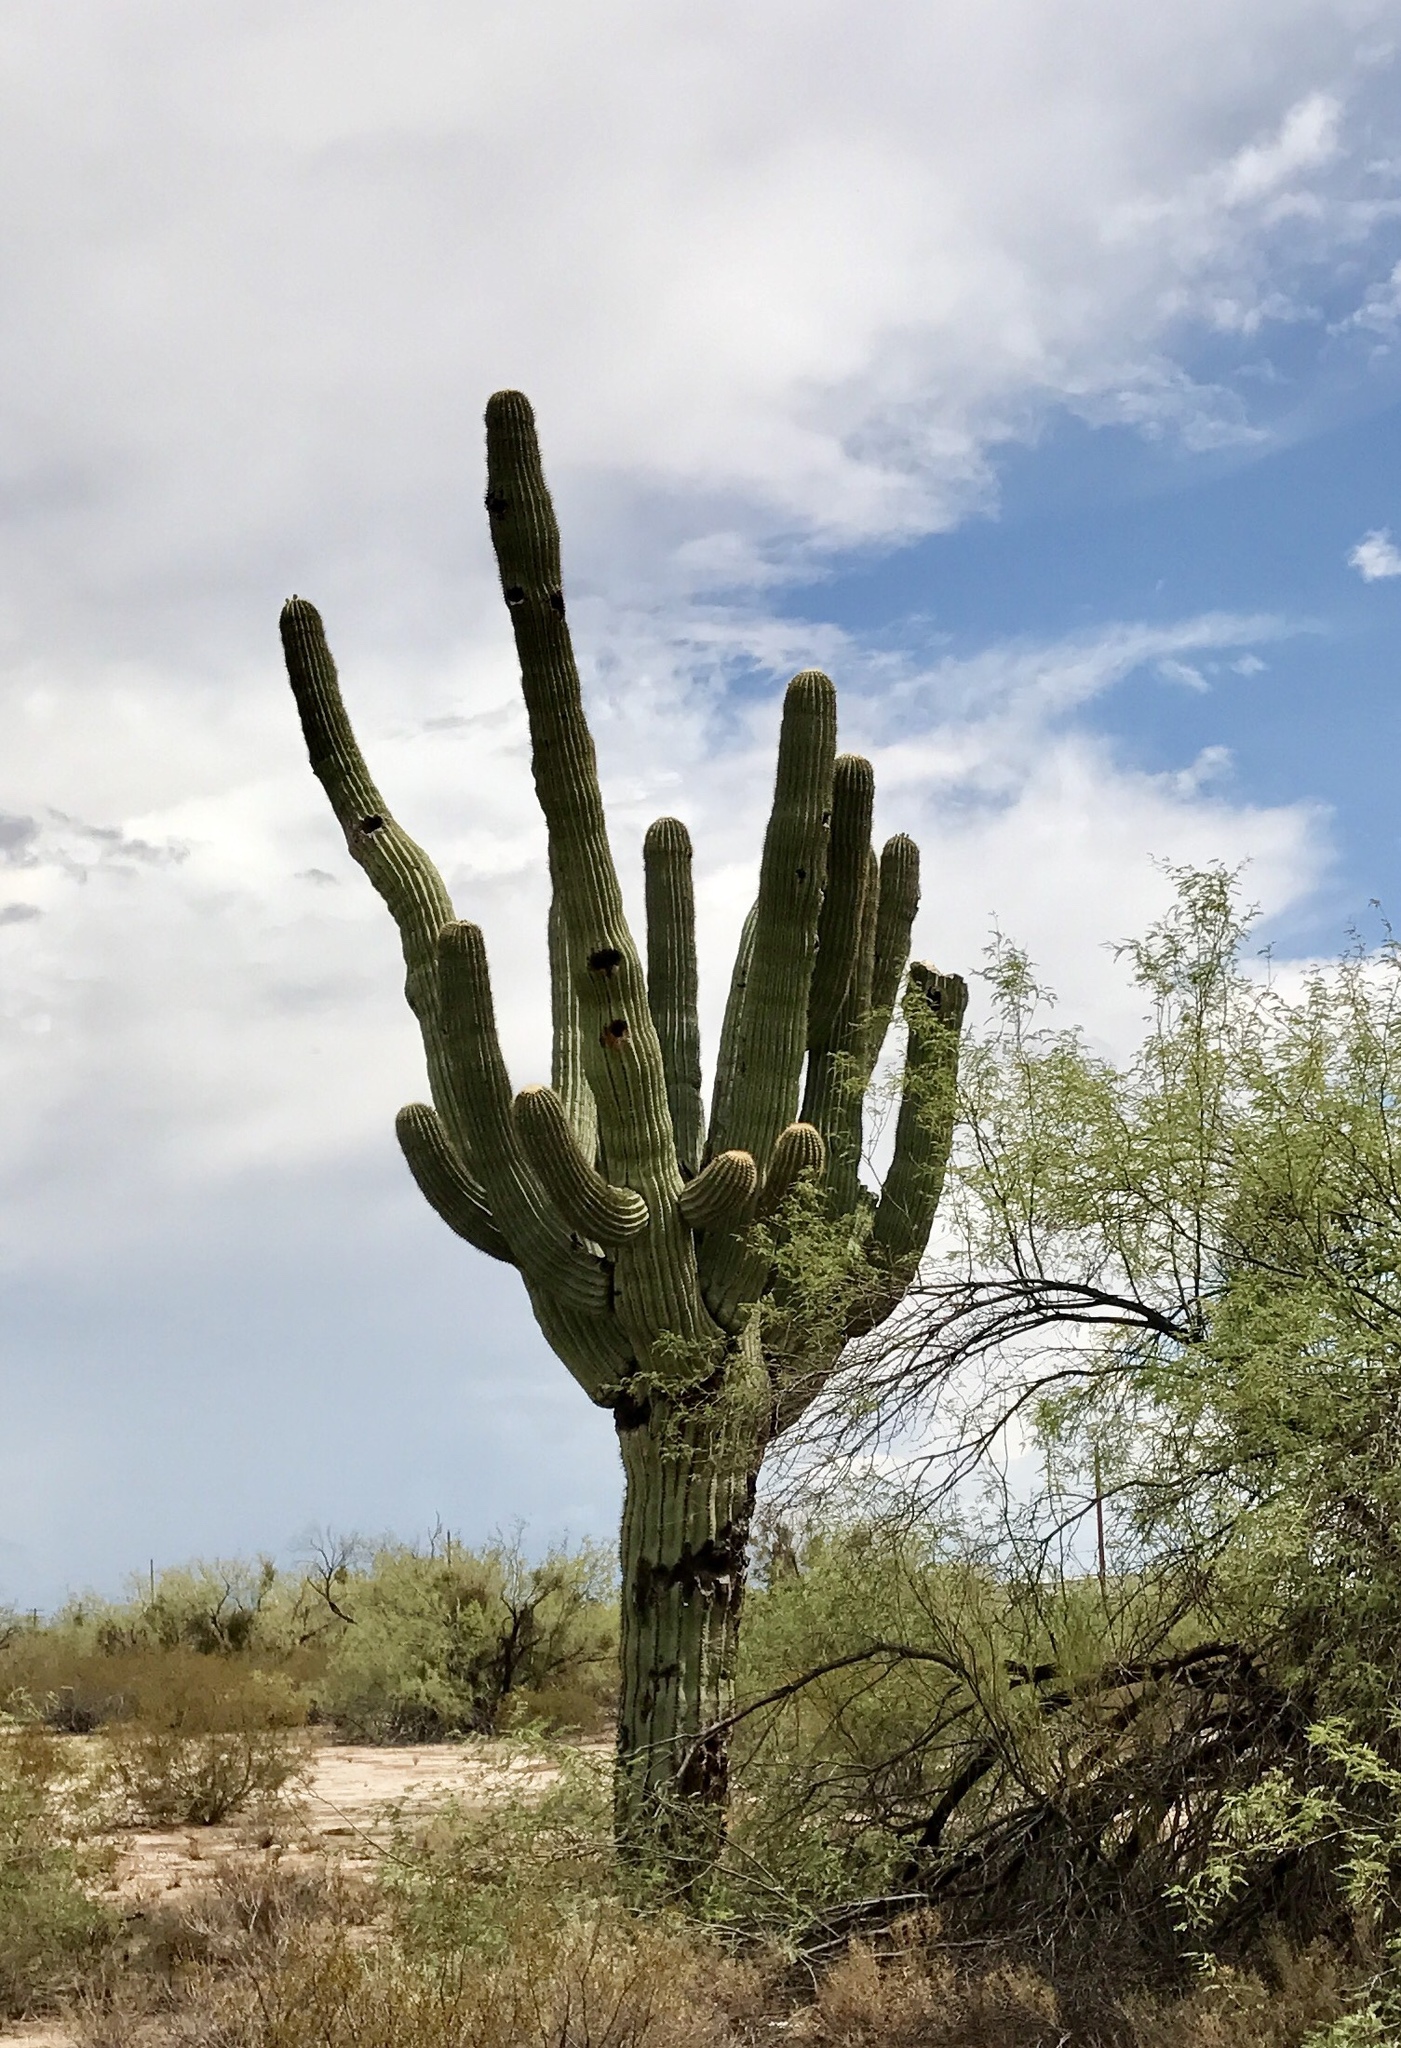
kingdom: Plantae
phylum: Tracheophyta
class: Magnoliopsida
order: Caryophyllales
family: Cactaceae
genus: Carnegiea
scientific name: Carnegiea gigantea
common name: Saguaro
